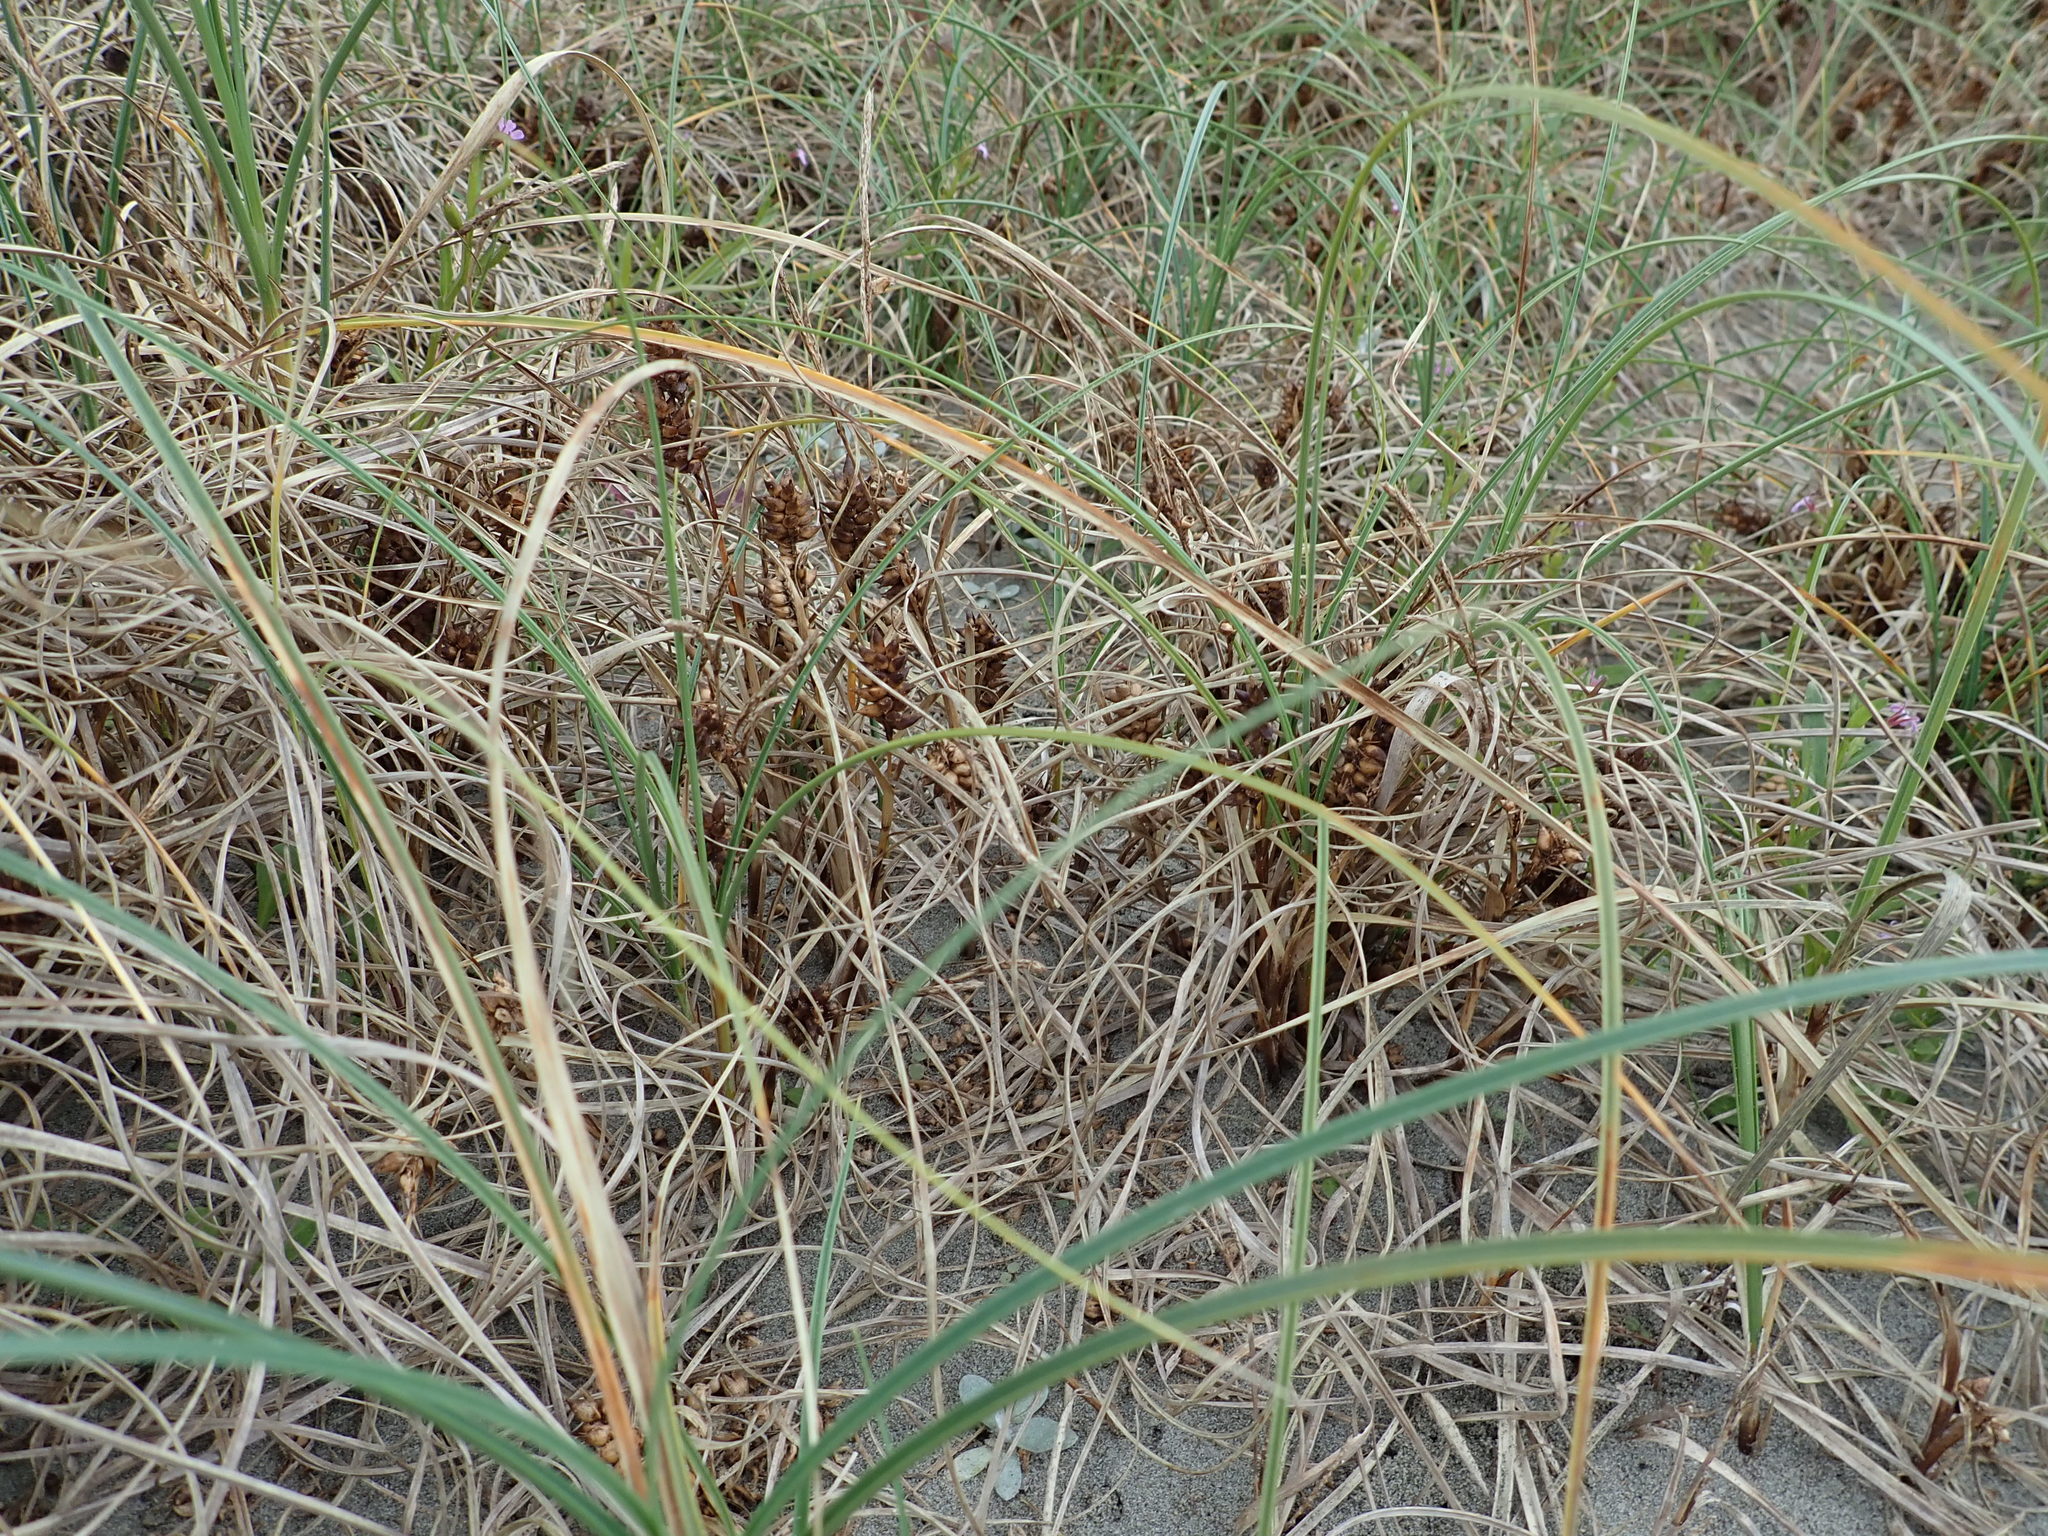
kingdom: Plantae
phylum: Tracheophyta
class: Liliopsida
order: Poales
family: Cyperaceae
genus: Carex
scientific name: Carex pumila
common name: Dwarf sedge
